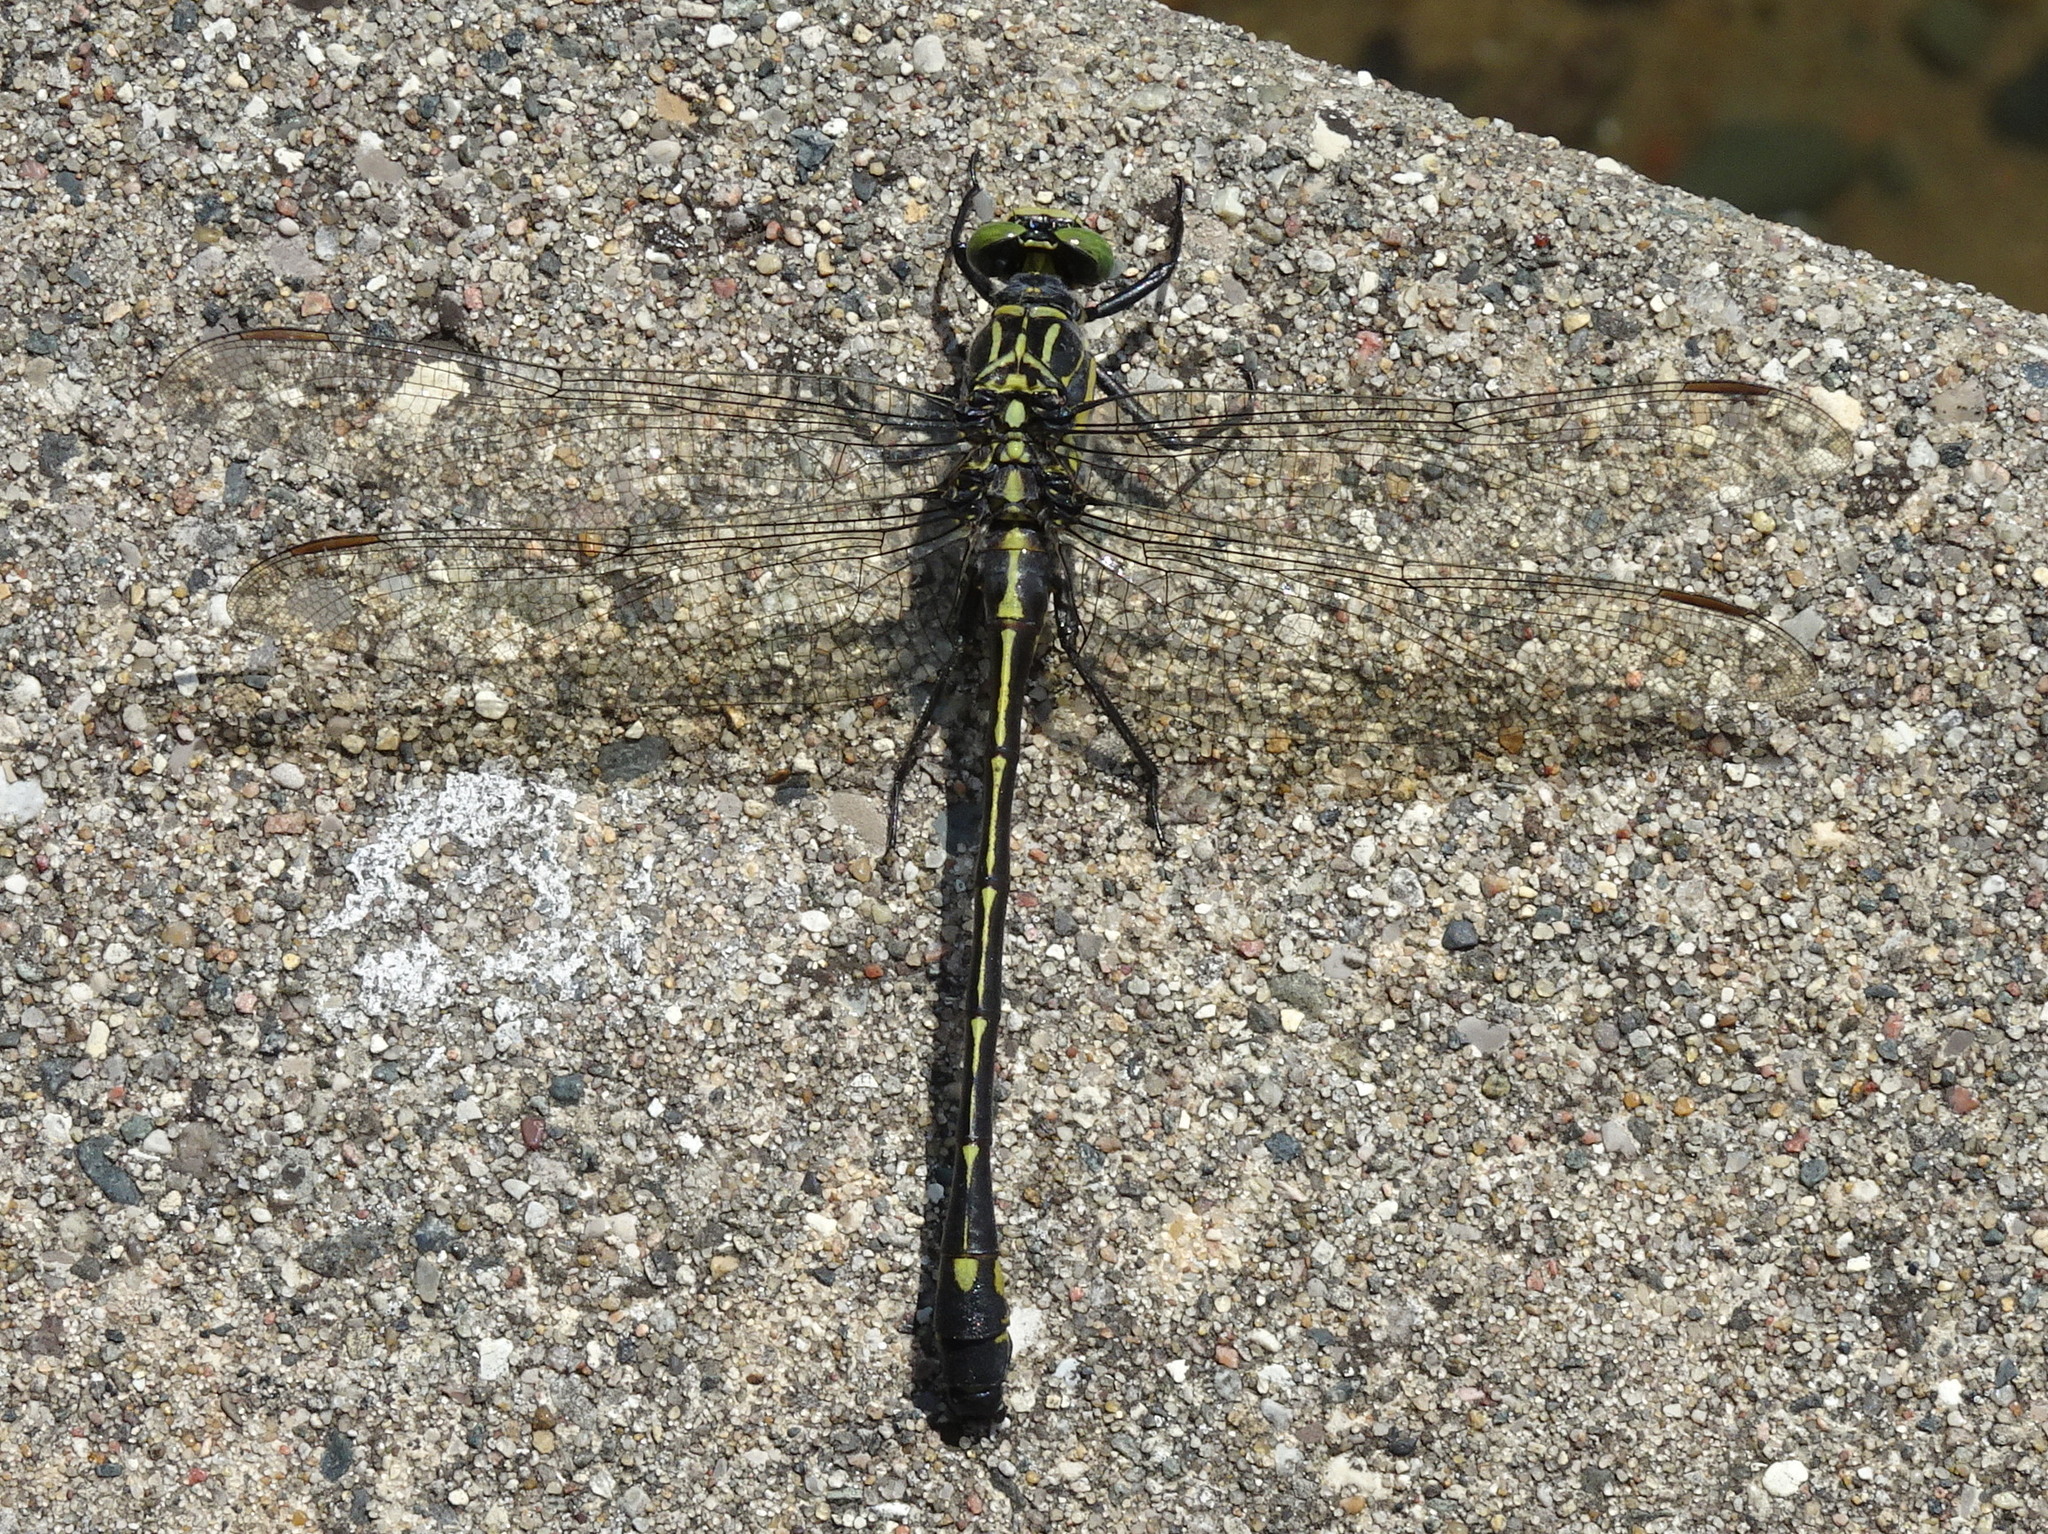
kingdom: Animalia
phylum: Arthropoda
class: Insecta
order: Odonata
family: Gomphidae
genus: Hagenius
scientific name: Hagenius brevistylus
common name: Dragonhunter
